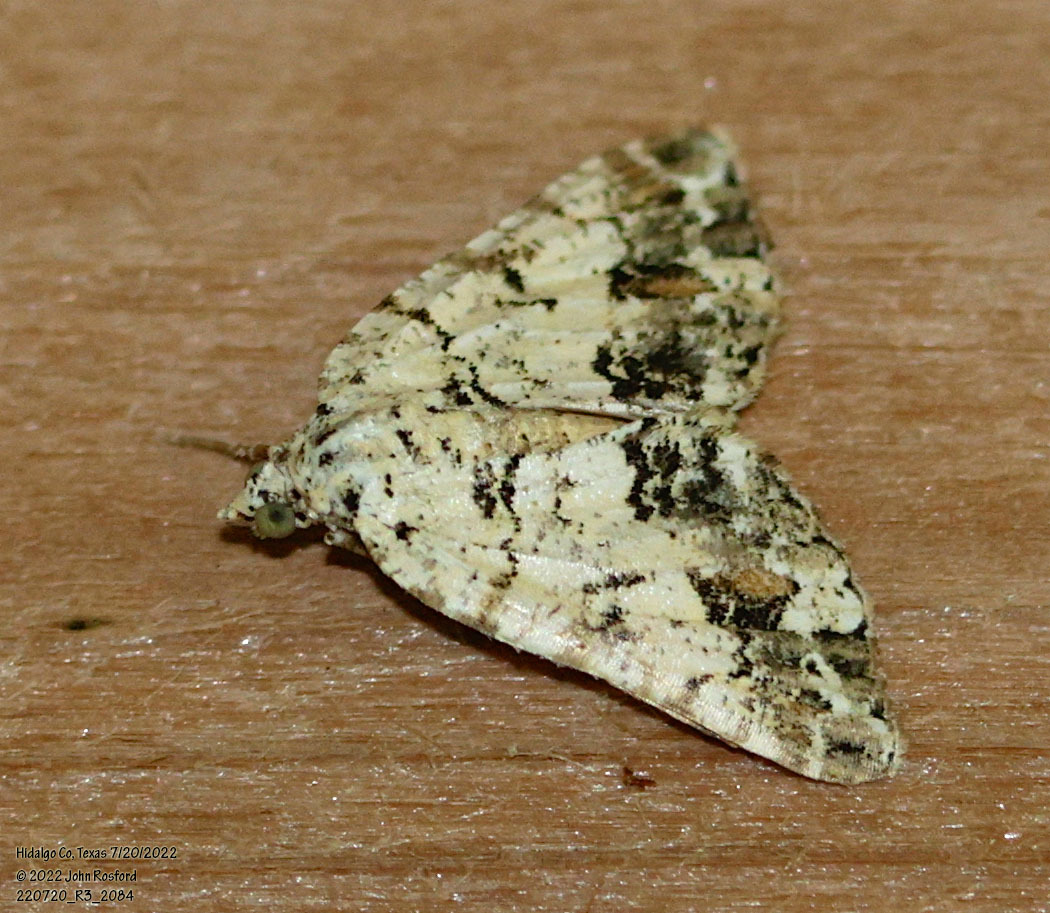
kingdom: Animalia
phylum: Arthropoda
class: Insecta
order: Lepidoptera
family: Geometridae
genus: Macaria
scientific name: Macaria graphidaria
